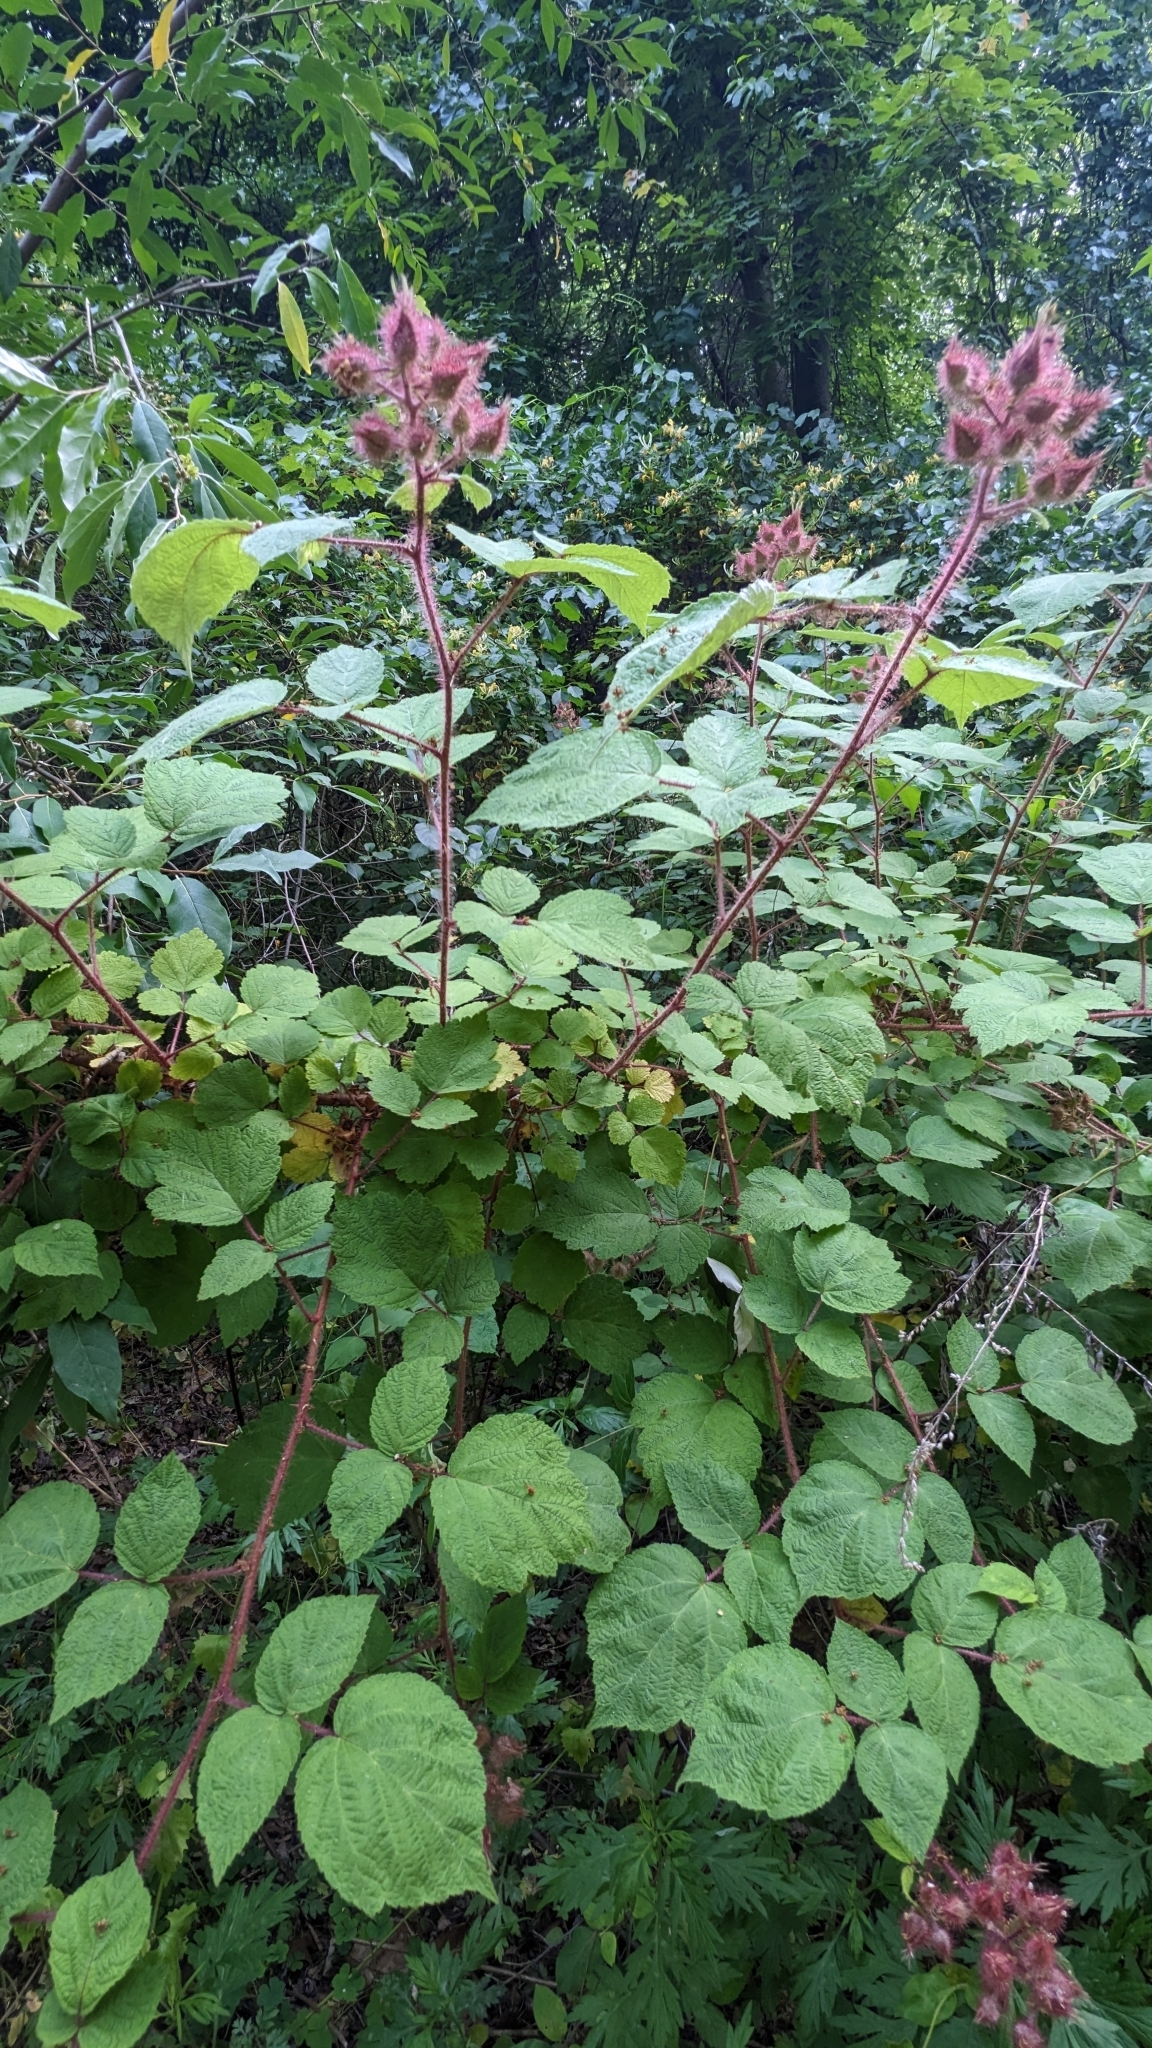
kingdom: Plantae
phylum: Tracheophyta
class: Magnoliopsida
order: Rosales
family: Rosaceae
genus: Rubus
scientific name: Rubus phoenicolasius
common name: Japanese wineberry
